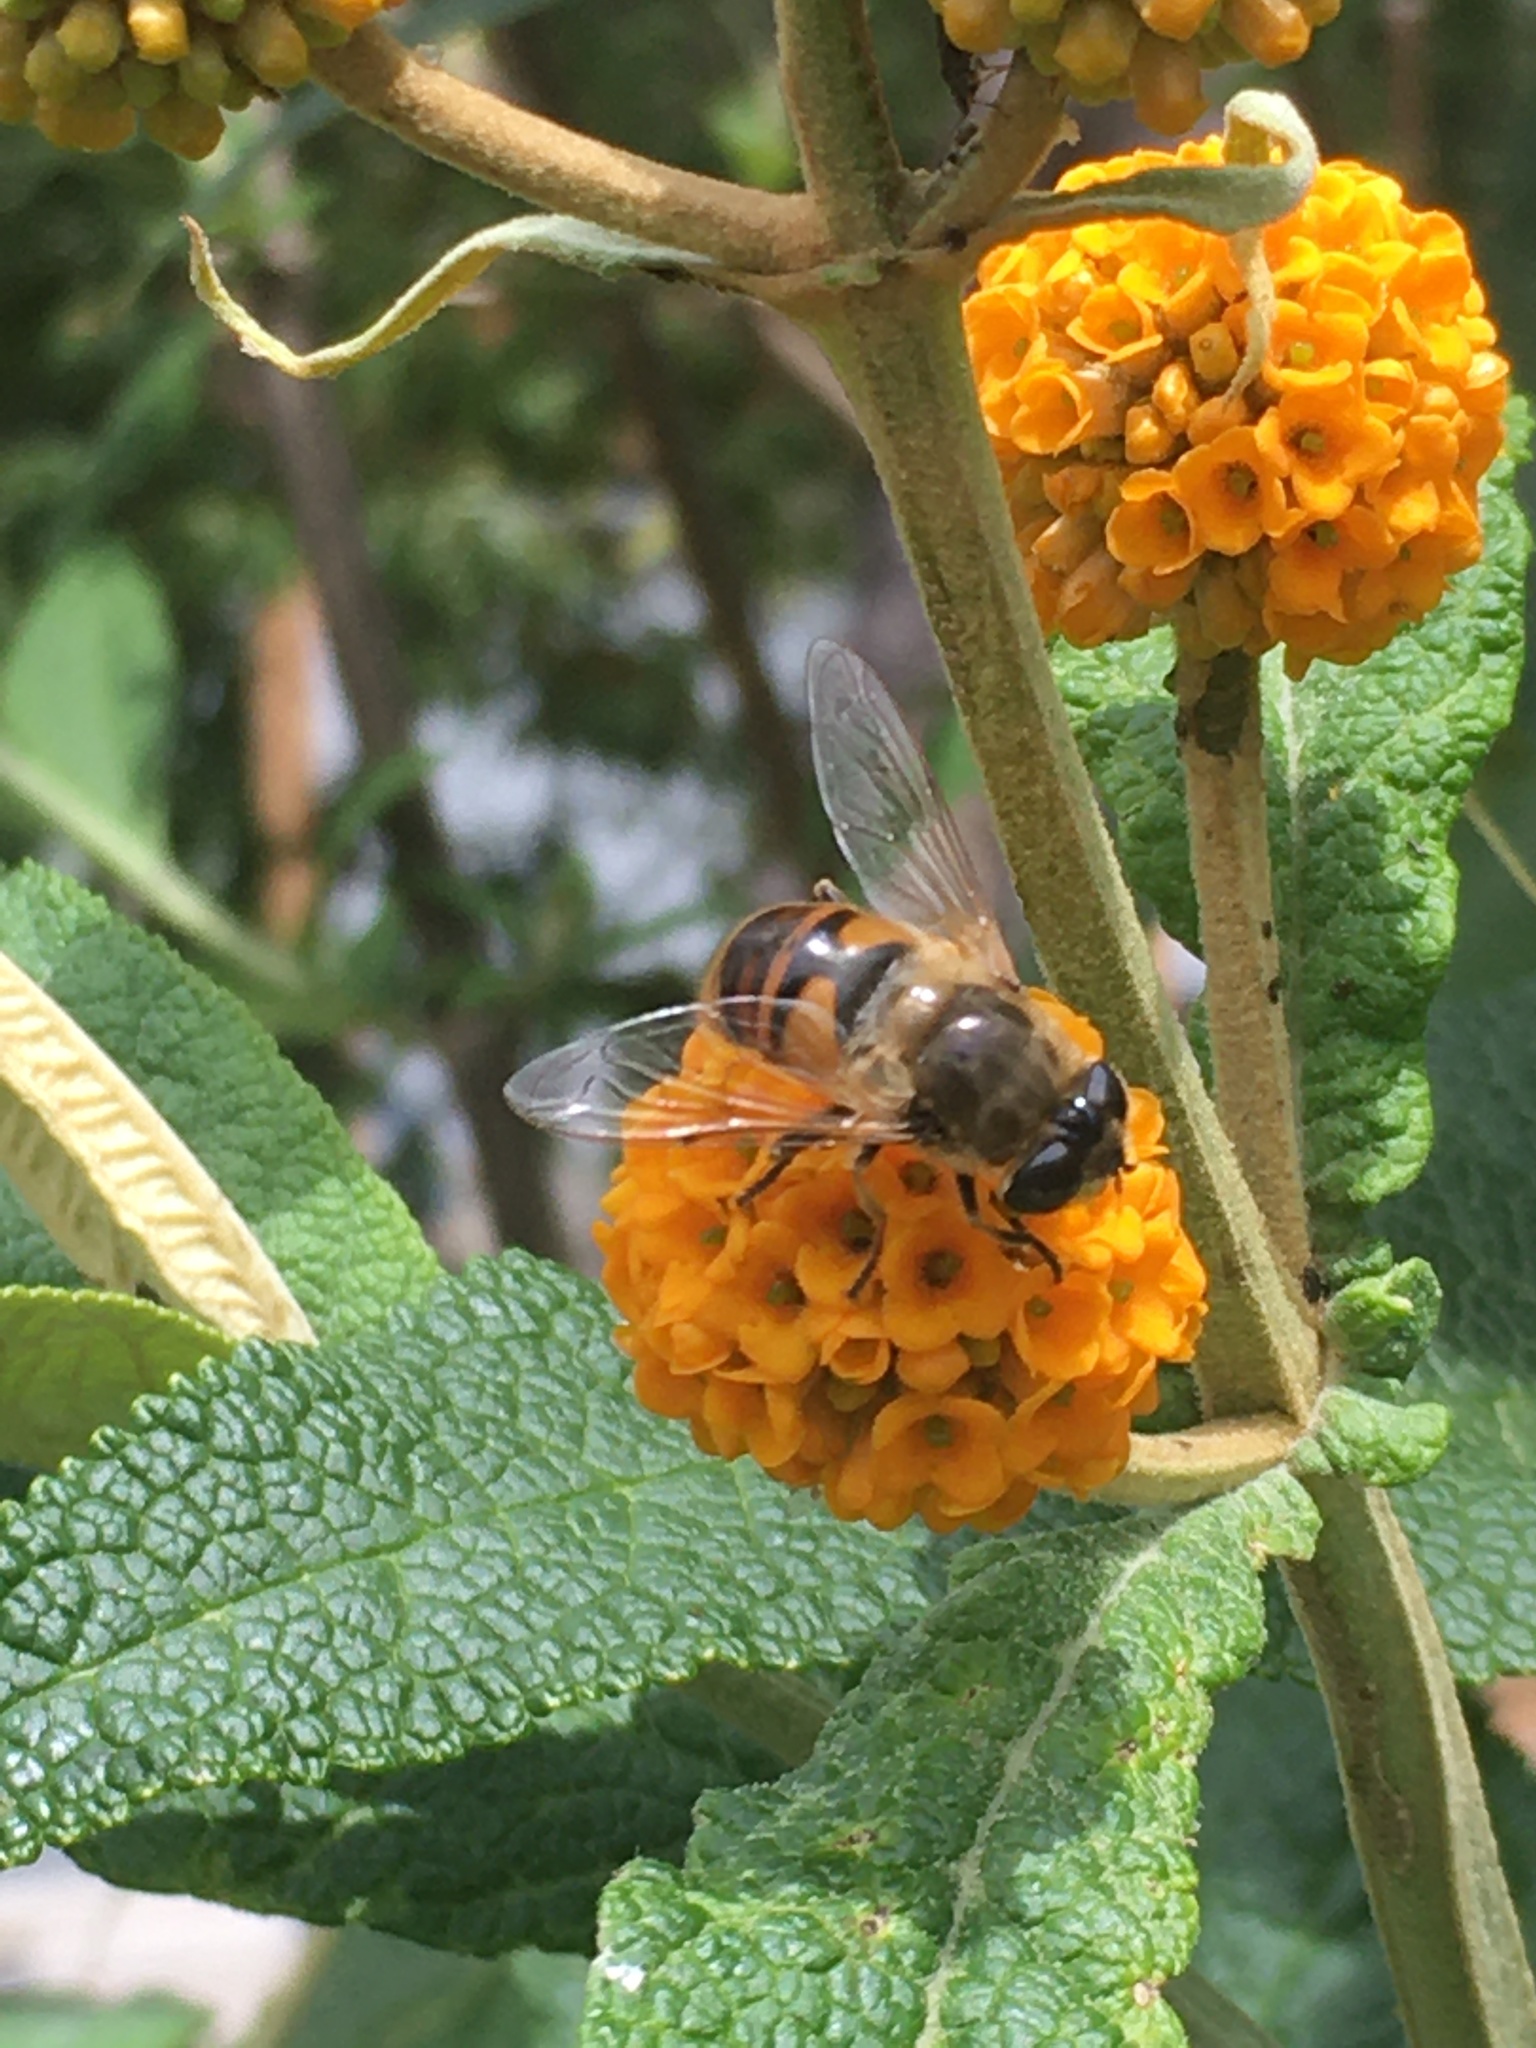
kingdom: Animalia
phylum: Arthropoda
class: Insecta
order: Diptera
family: Syrphidae
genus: Eristalis
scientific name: Eristalis tenax
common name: Drone fly
